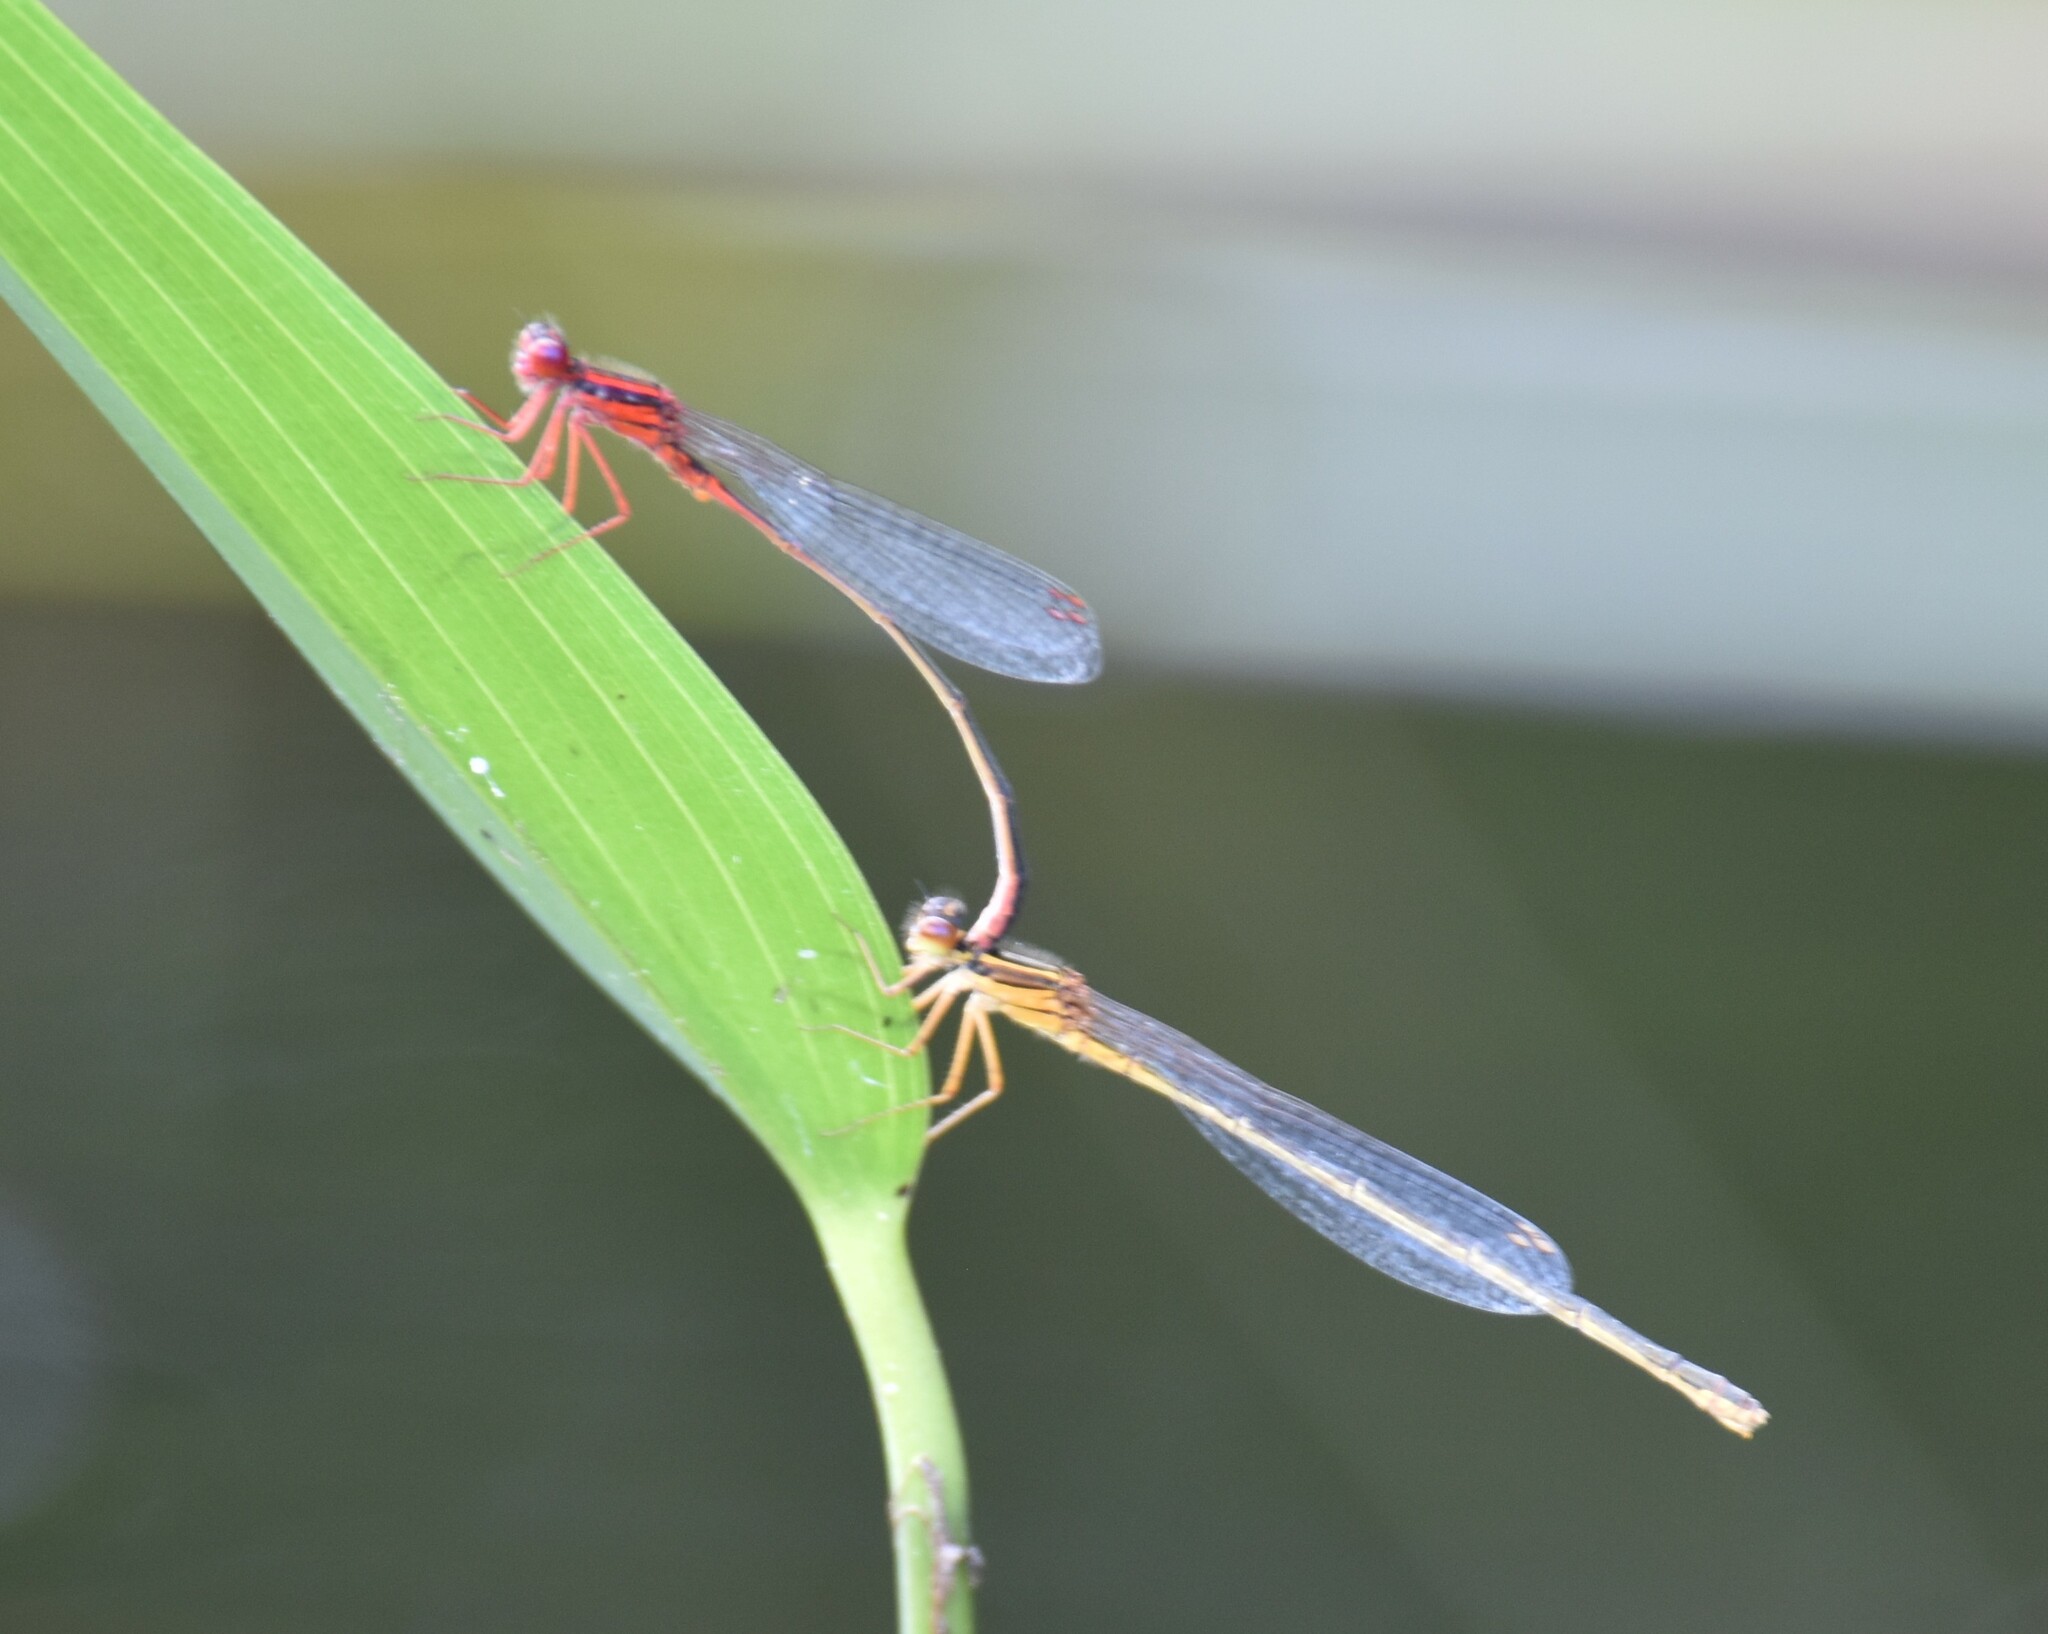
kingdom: Animalia
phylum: Arthropoda
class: Insecta
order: Odonata
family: Coenagrionidae
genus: Enallagma
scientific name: Enallagma pictum
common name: Scarlet bluet
